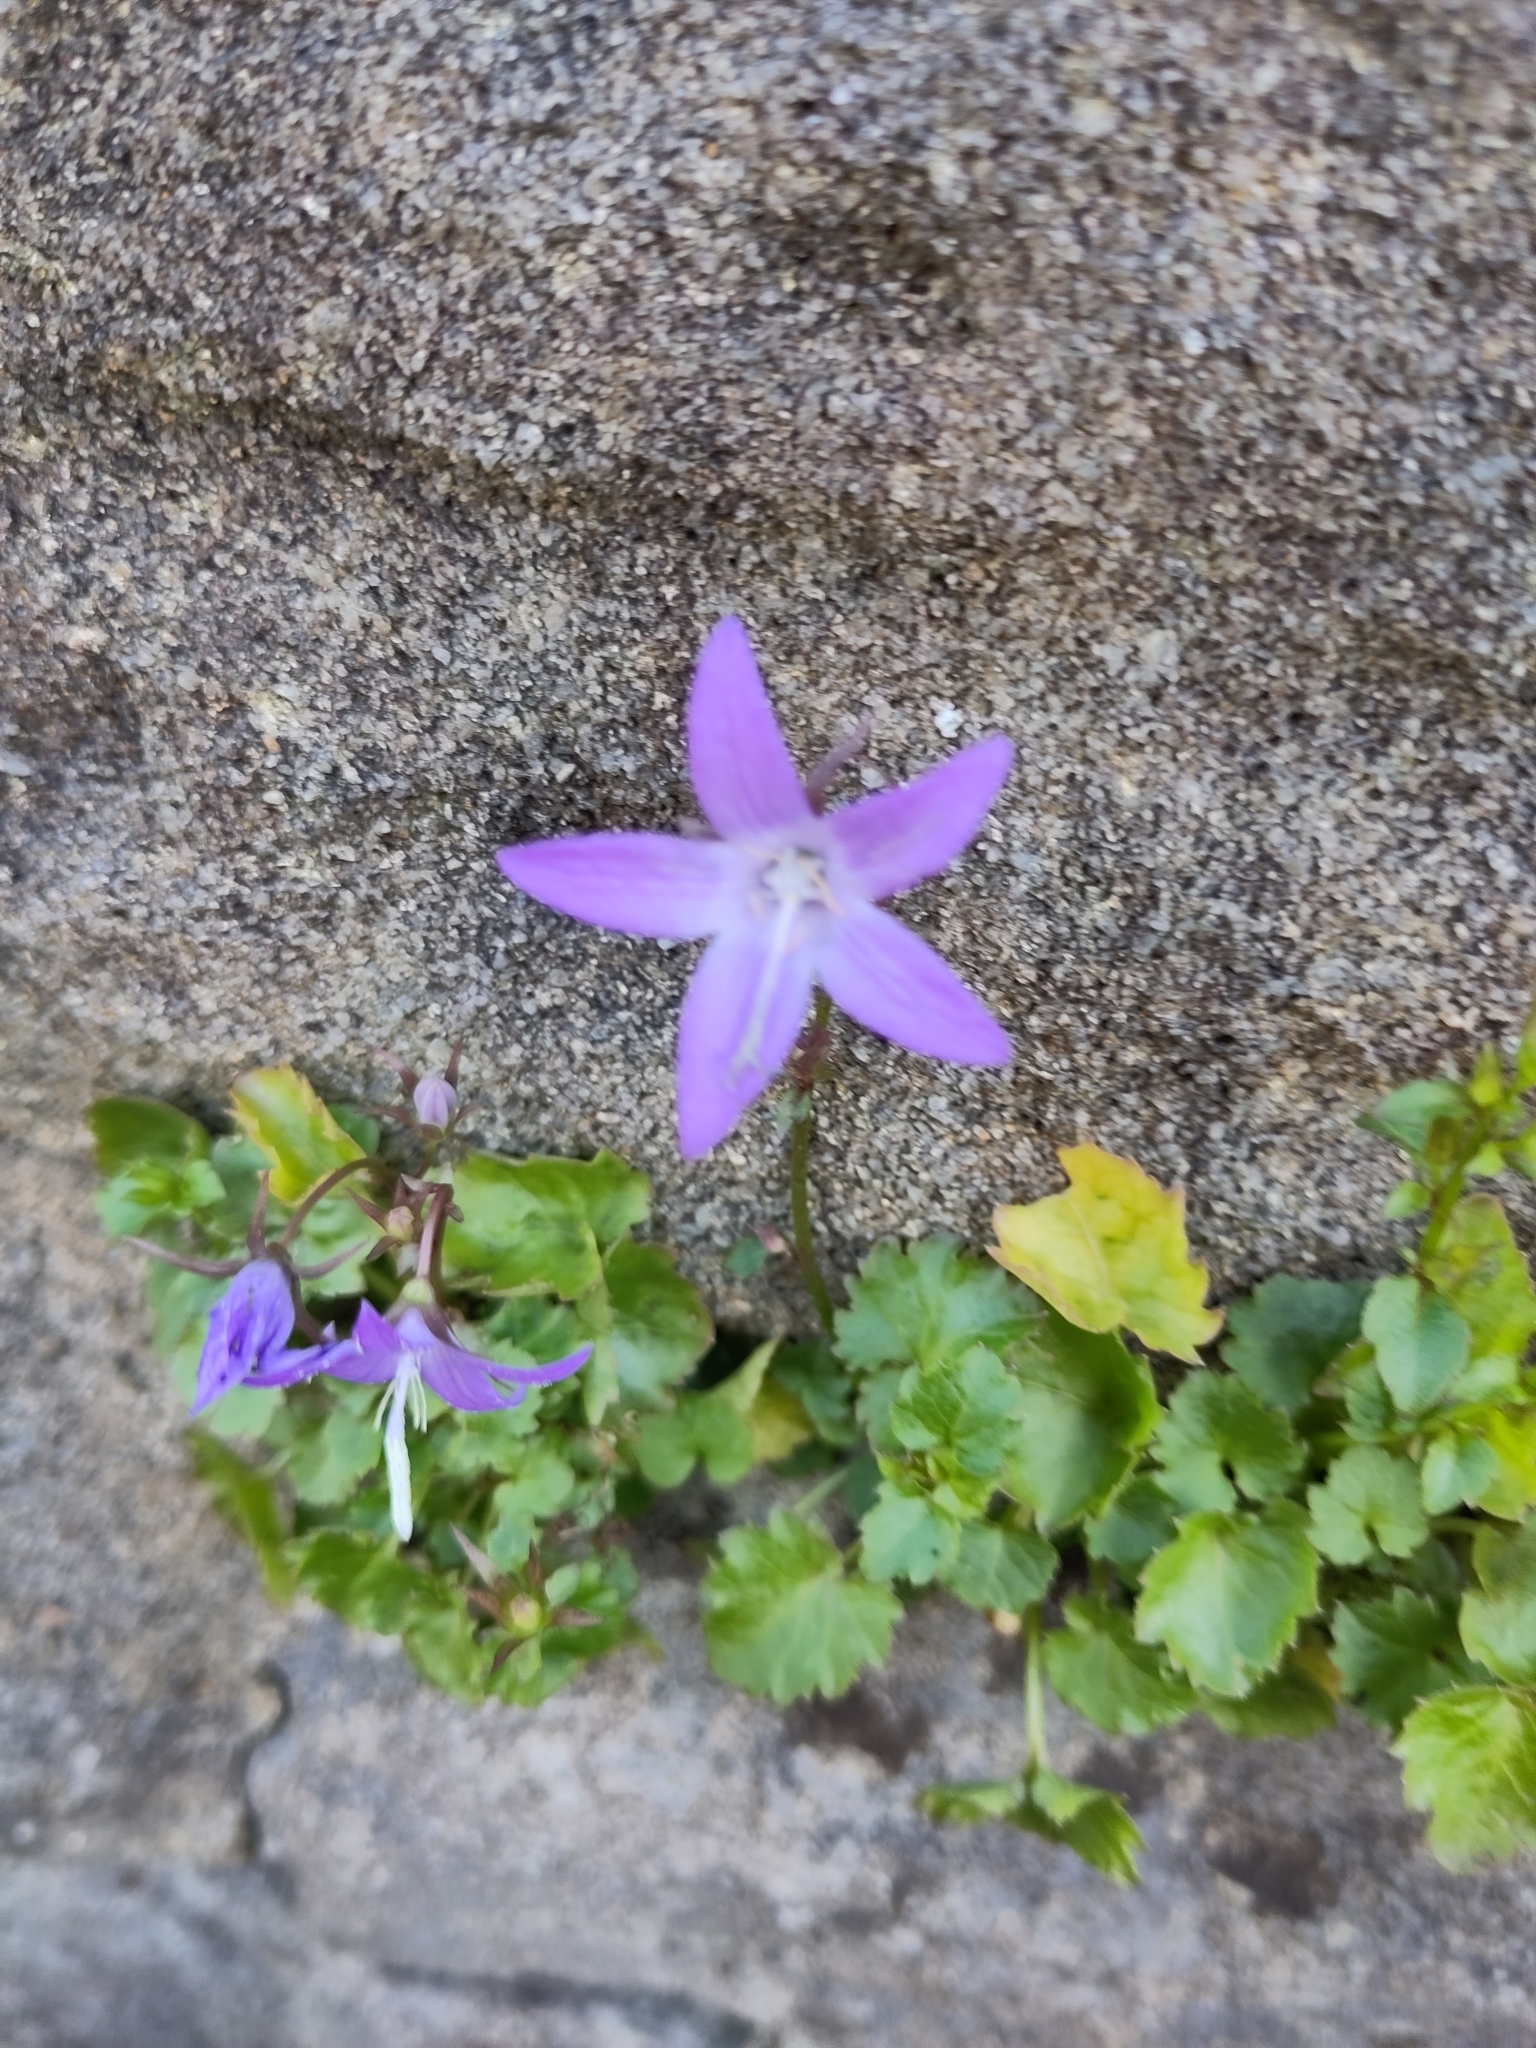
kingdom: Plantae
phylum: Tracheophyta
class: Magnoliopsida
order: Asterales
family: Campanulaceae
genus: Campanula
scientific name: Campanula poscharskyana
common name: Trailing bellflower
